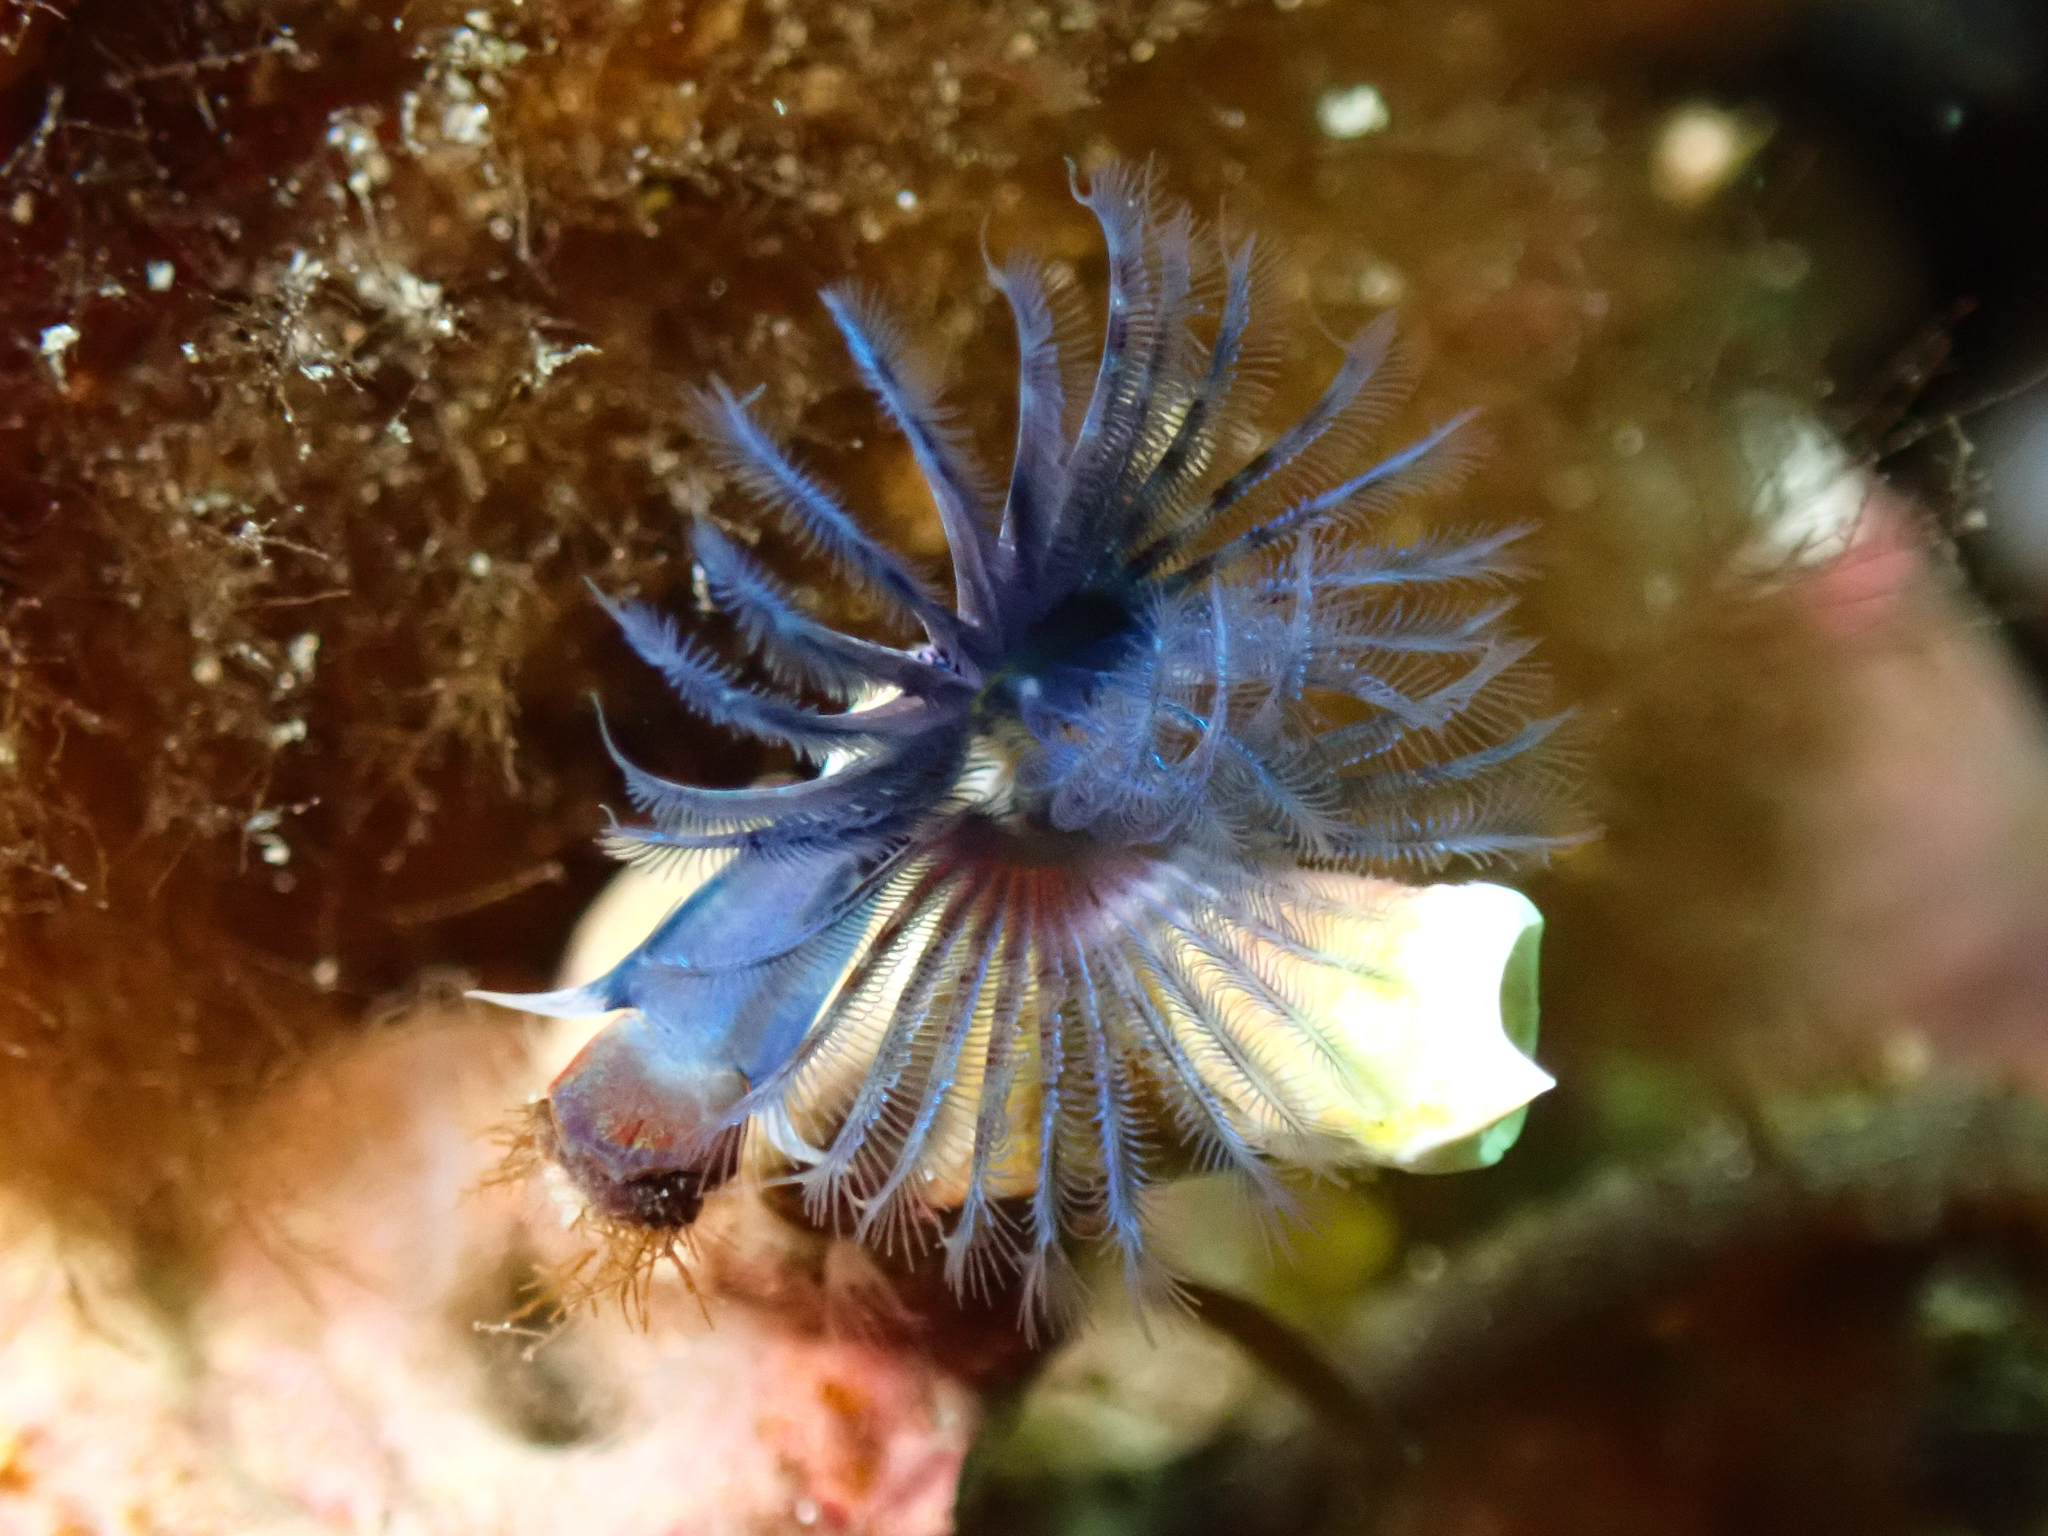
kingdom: Animalia
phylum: Annelida
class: Polychaeta
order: Sabellida
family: Serpulidae
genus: Spirobranchus
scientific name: Spirobranchus triqueter
